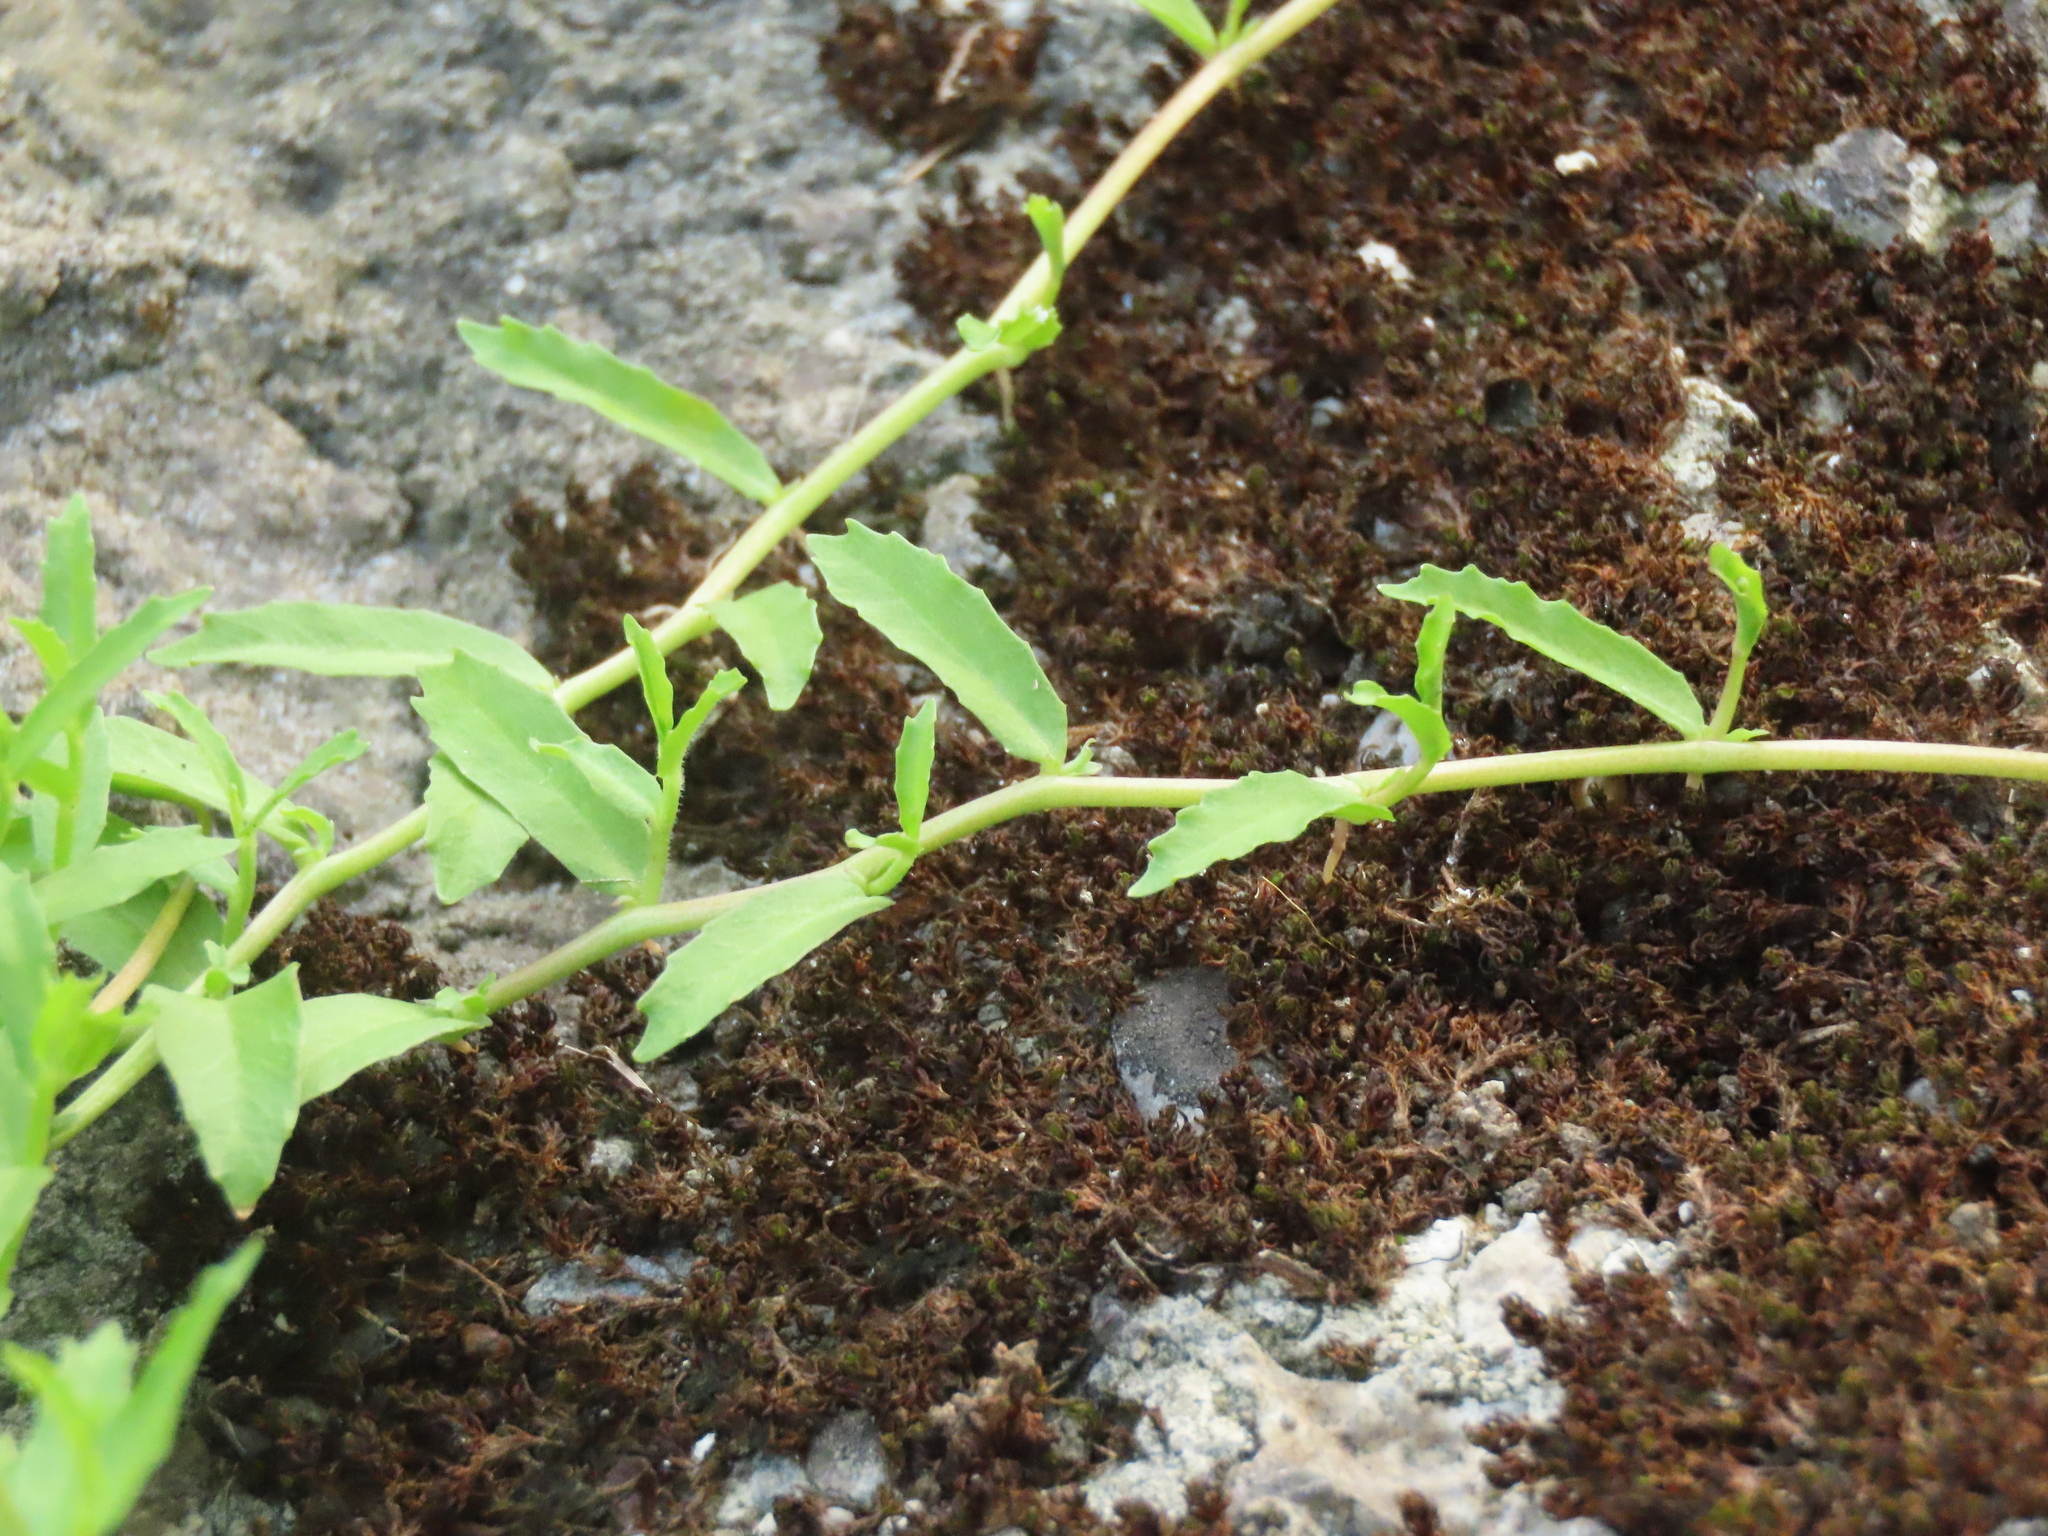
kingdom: Plantae
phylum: Tracheophyta
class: Magnoliopsida
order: Asterales
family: Campanulaceae
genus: Lobelia
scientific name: Lobelia chinensis
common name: Chinese lobelia
